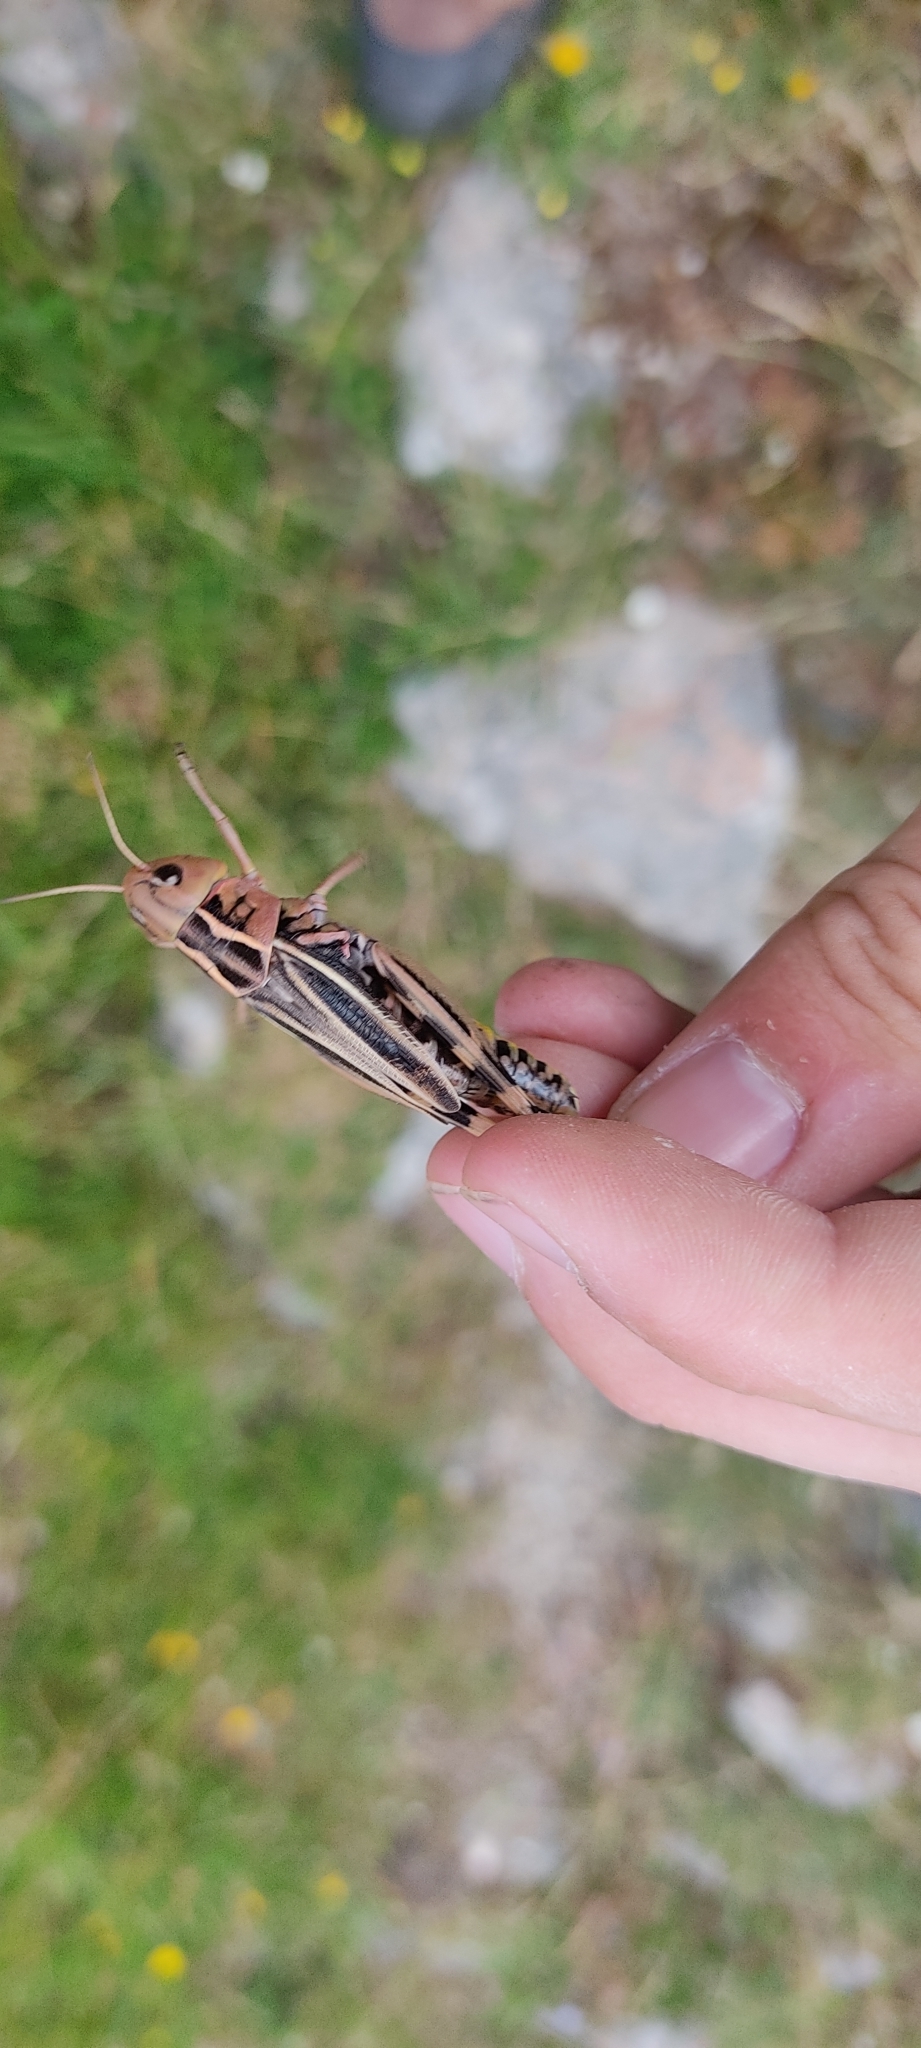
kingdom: Animalia
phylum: Arthropoda
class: Insecta
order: Orthoptera
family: Acrididae
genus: Arcyptera
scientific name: Arcyptera fusca
